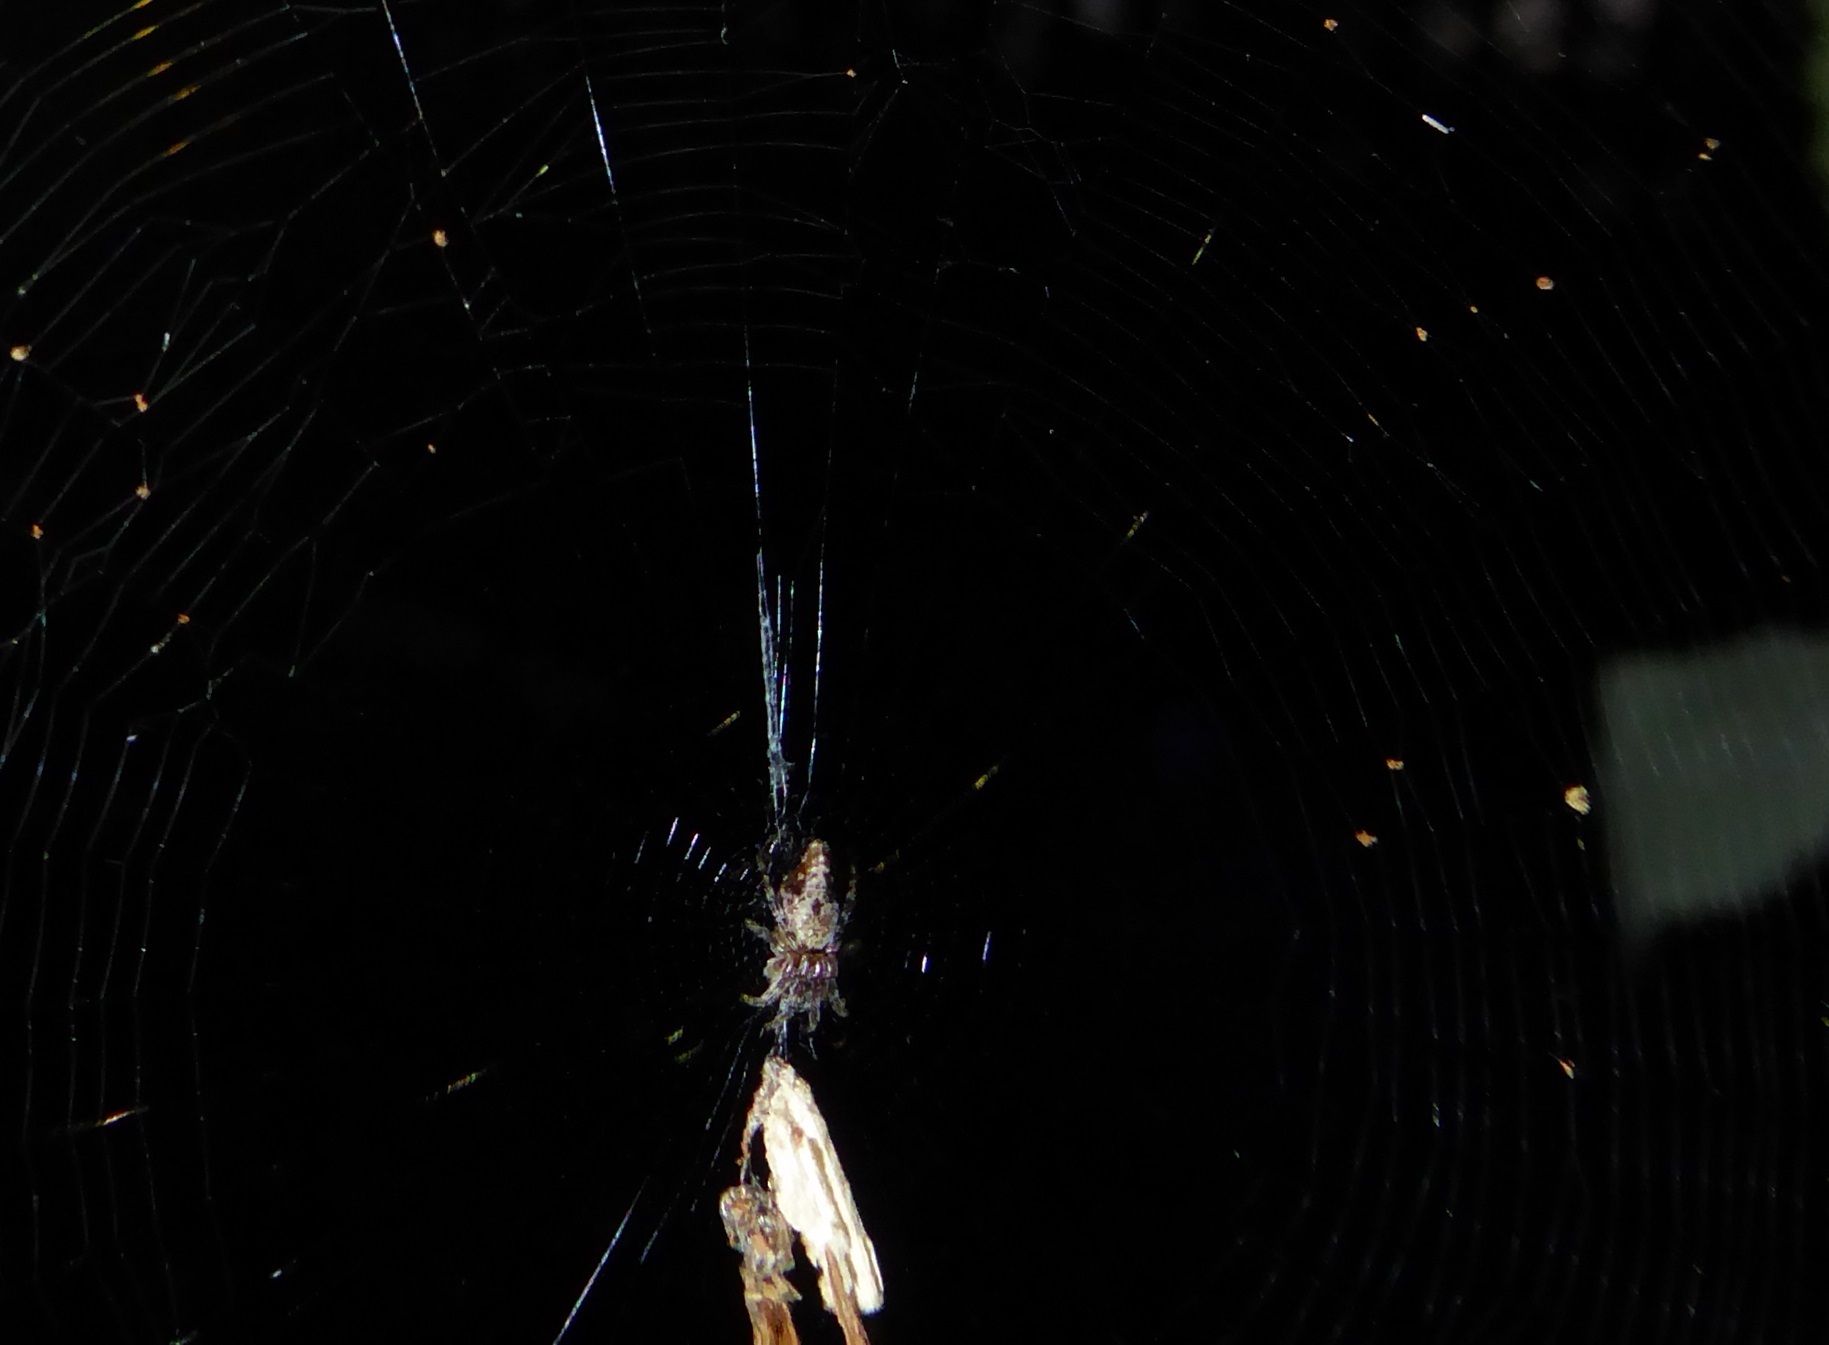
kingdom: Animalia
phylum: Arthropoda
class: Arachnida
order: Araneae
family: Araneidae
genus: Cyclosa
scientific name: Cyclosa conica
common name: Conical trashline orbweaver
